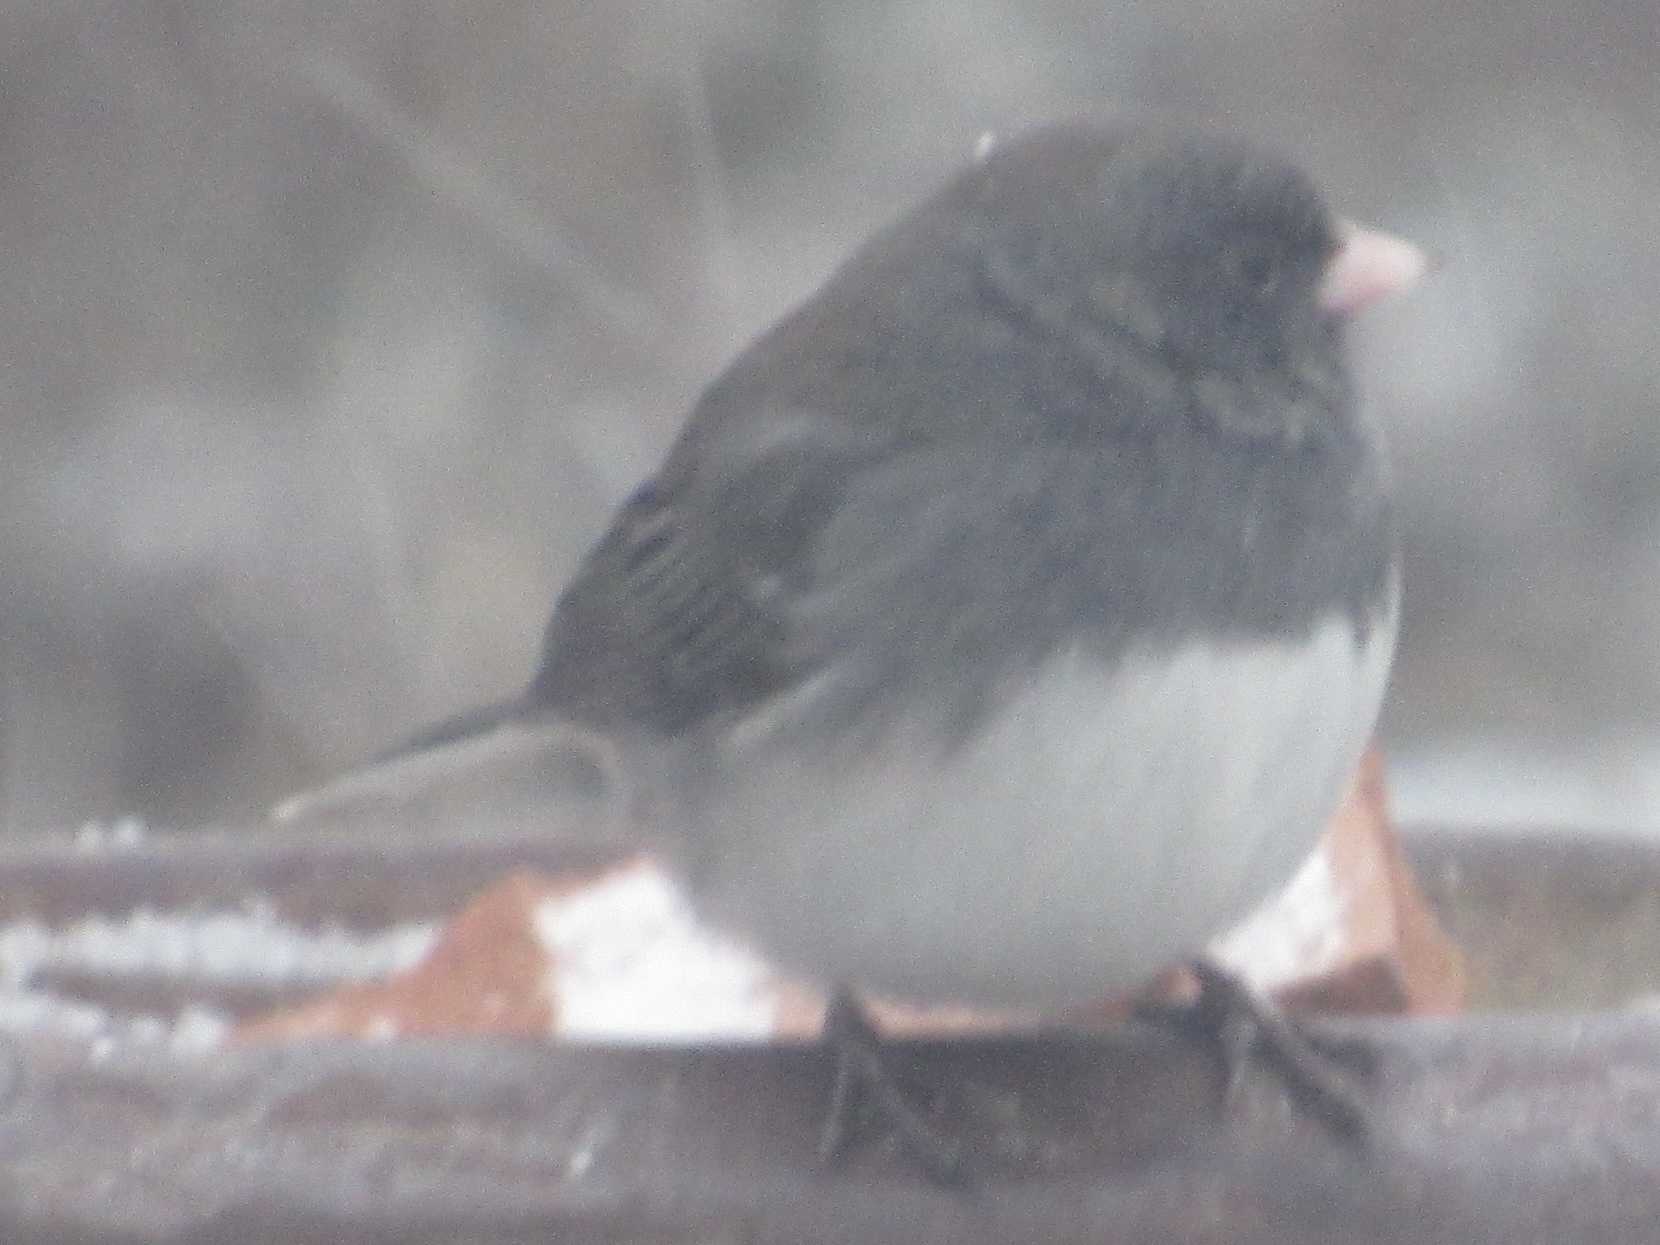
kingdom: Animalia
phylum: Chordata
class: Aves
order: Passeriformes
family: Passerellidae
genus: Junco
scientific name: Junco hyemalis
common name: Dark-eyed junco
